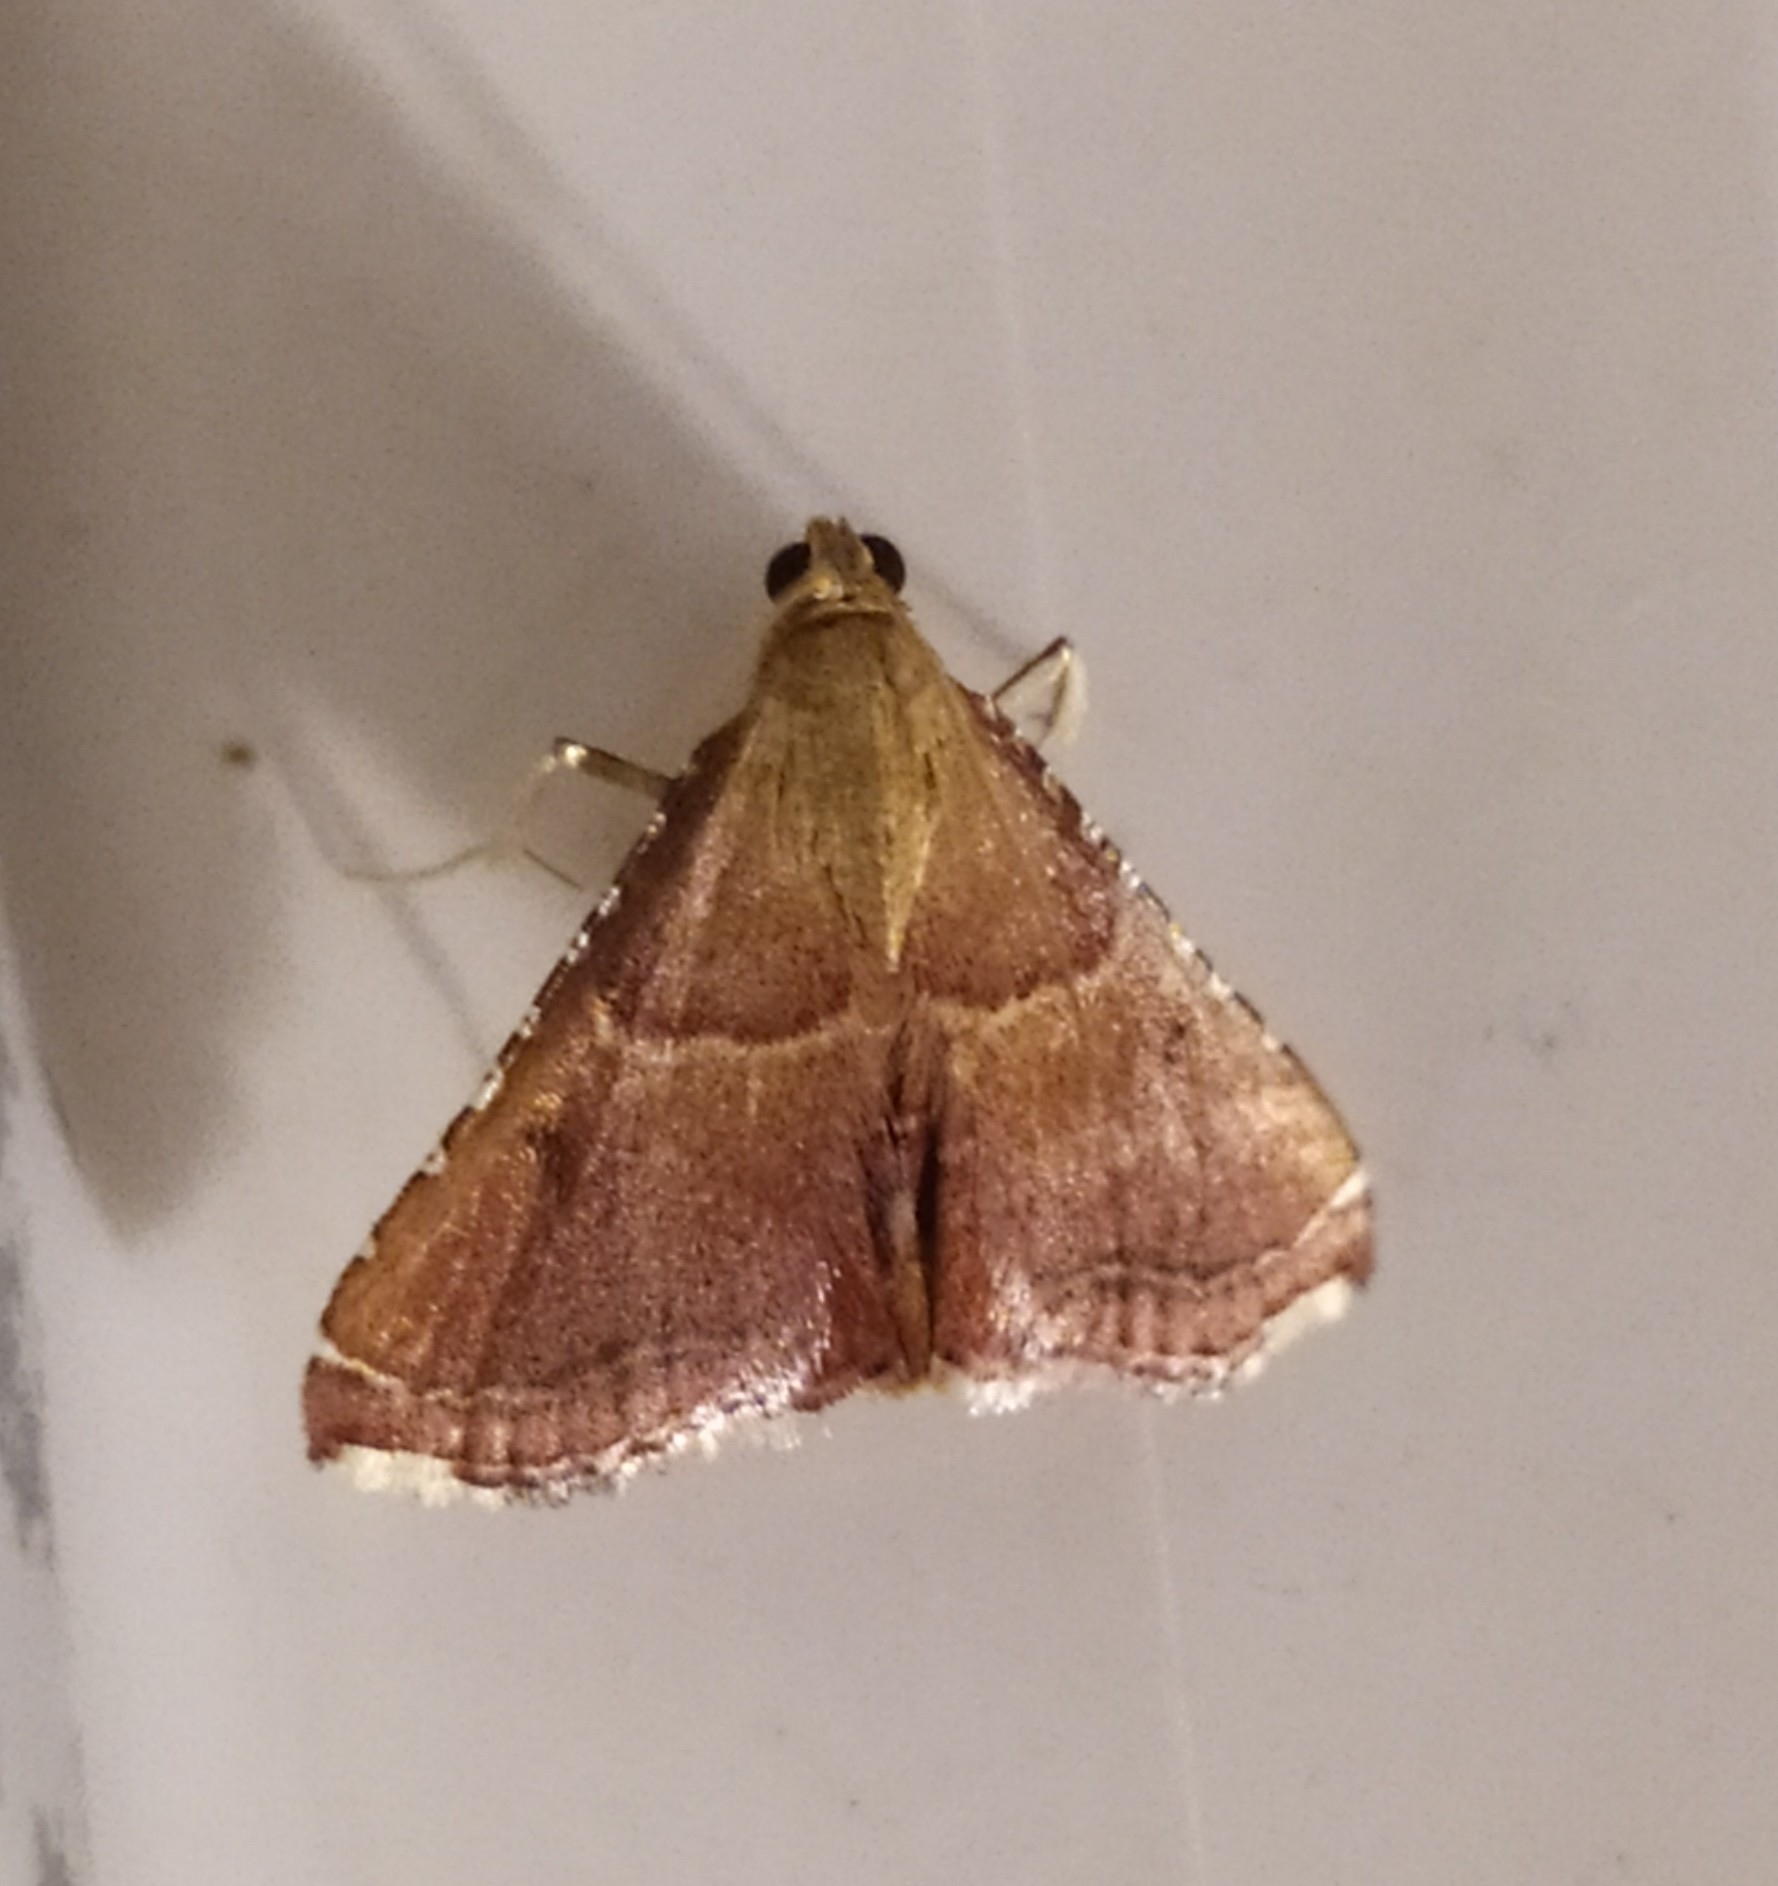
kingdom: Animalia
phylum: Arthropoda
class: Insecta
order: Lepidoptera
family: Pyralidae
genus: Endotricha
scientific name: Endotricha flammealis
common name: Rosy tabby
